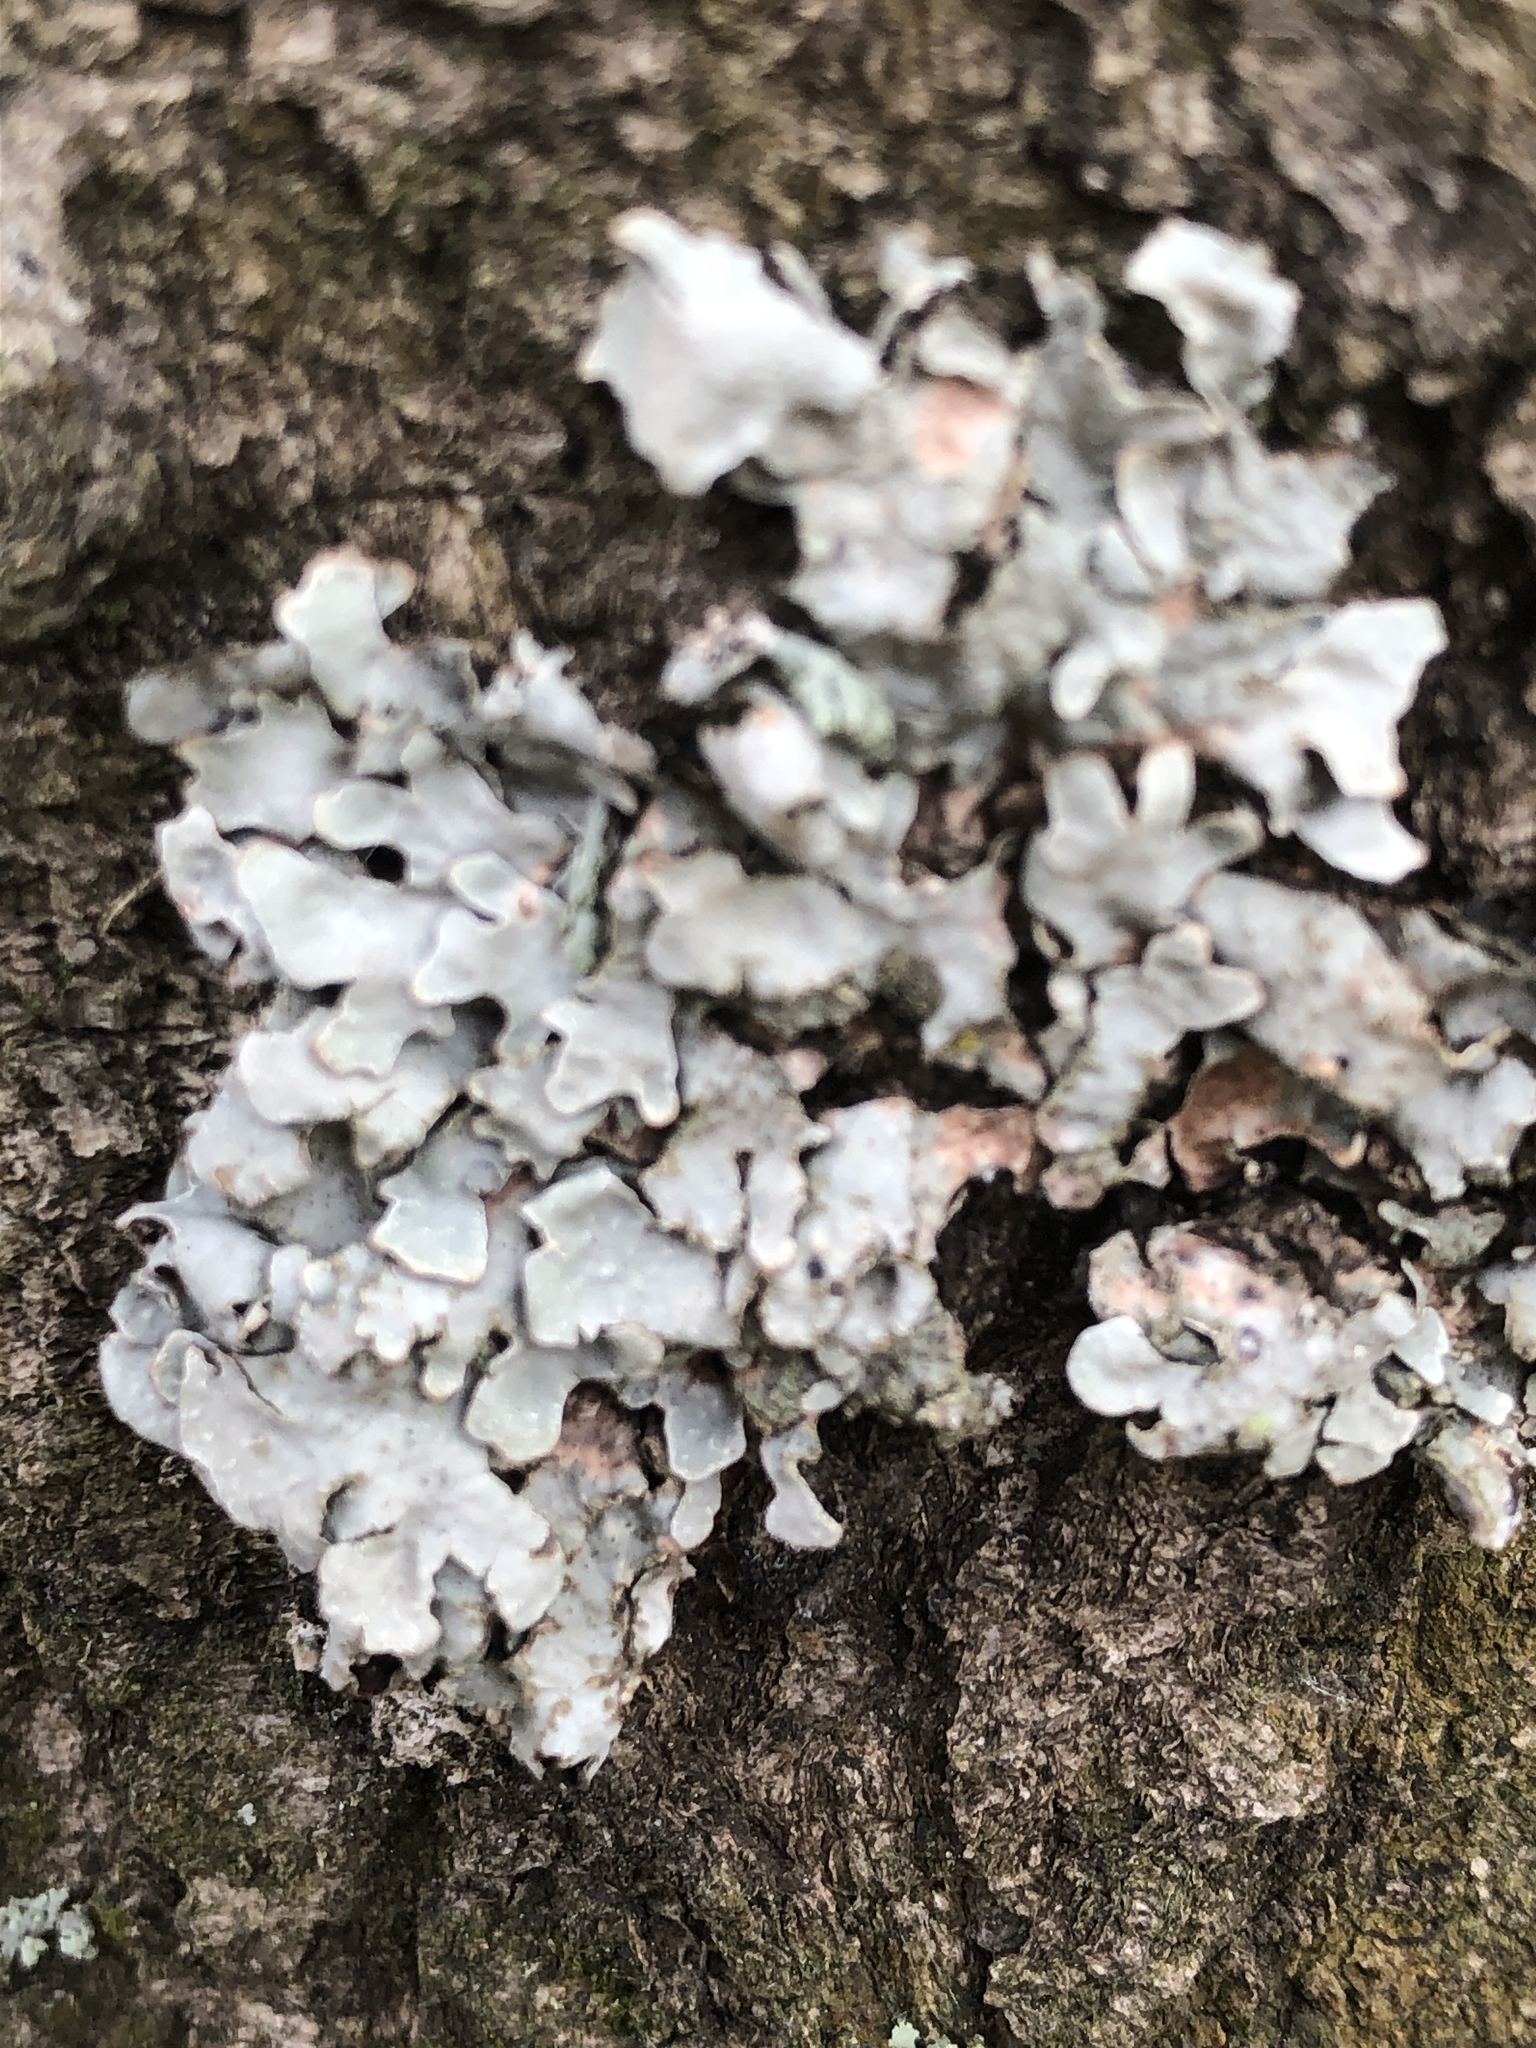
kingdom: Fungi
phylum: Ascomycota
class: Lecanoromycetes
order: Lecanorales
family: Parmeliaceae
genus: Parmelia
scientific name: Parmelia sulcata
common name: Netted shield lichen
